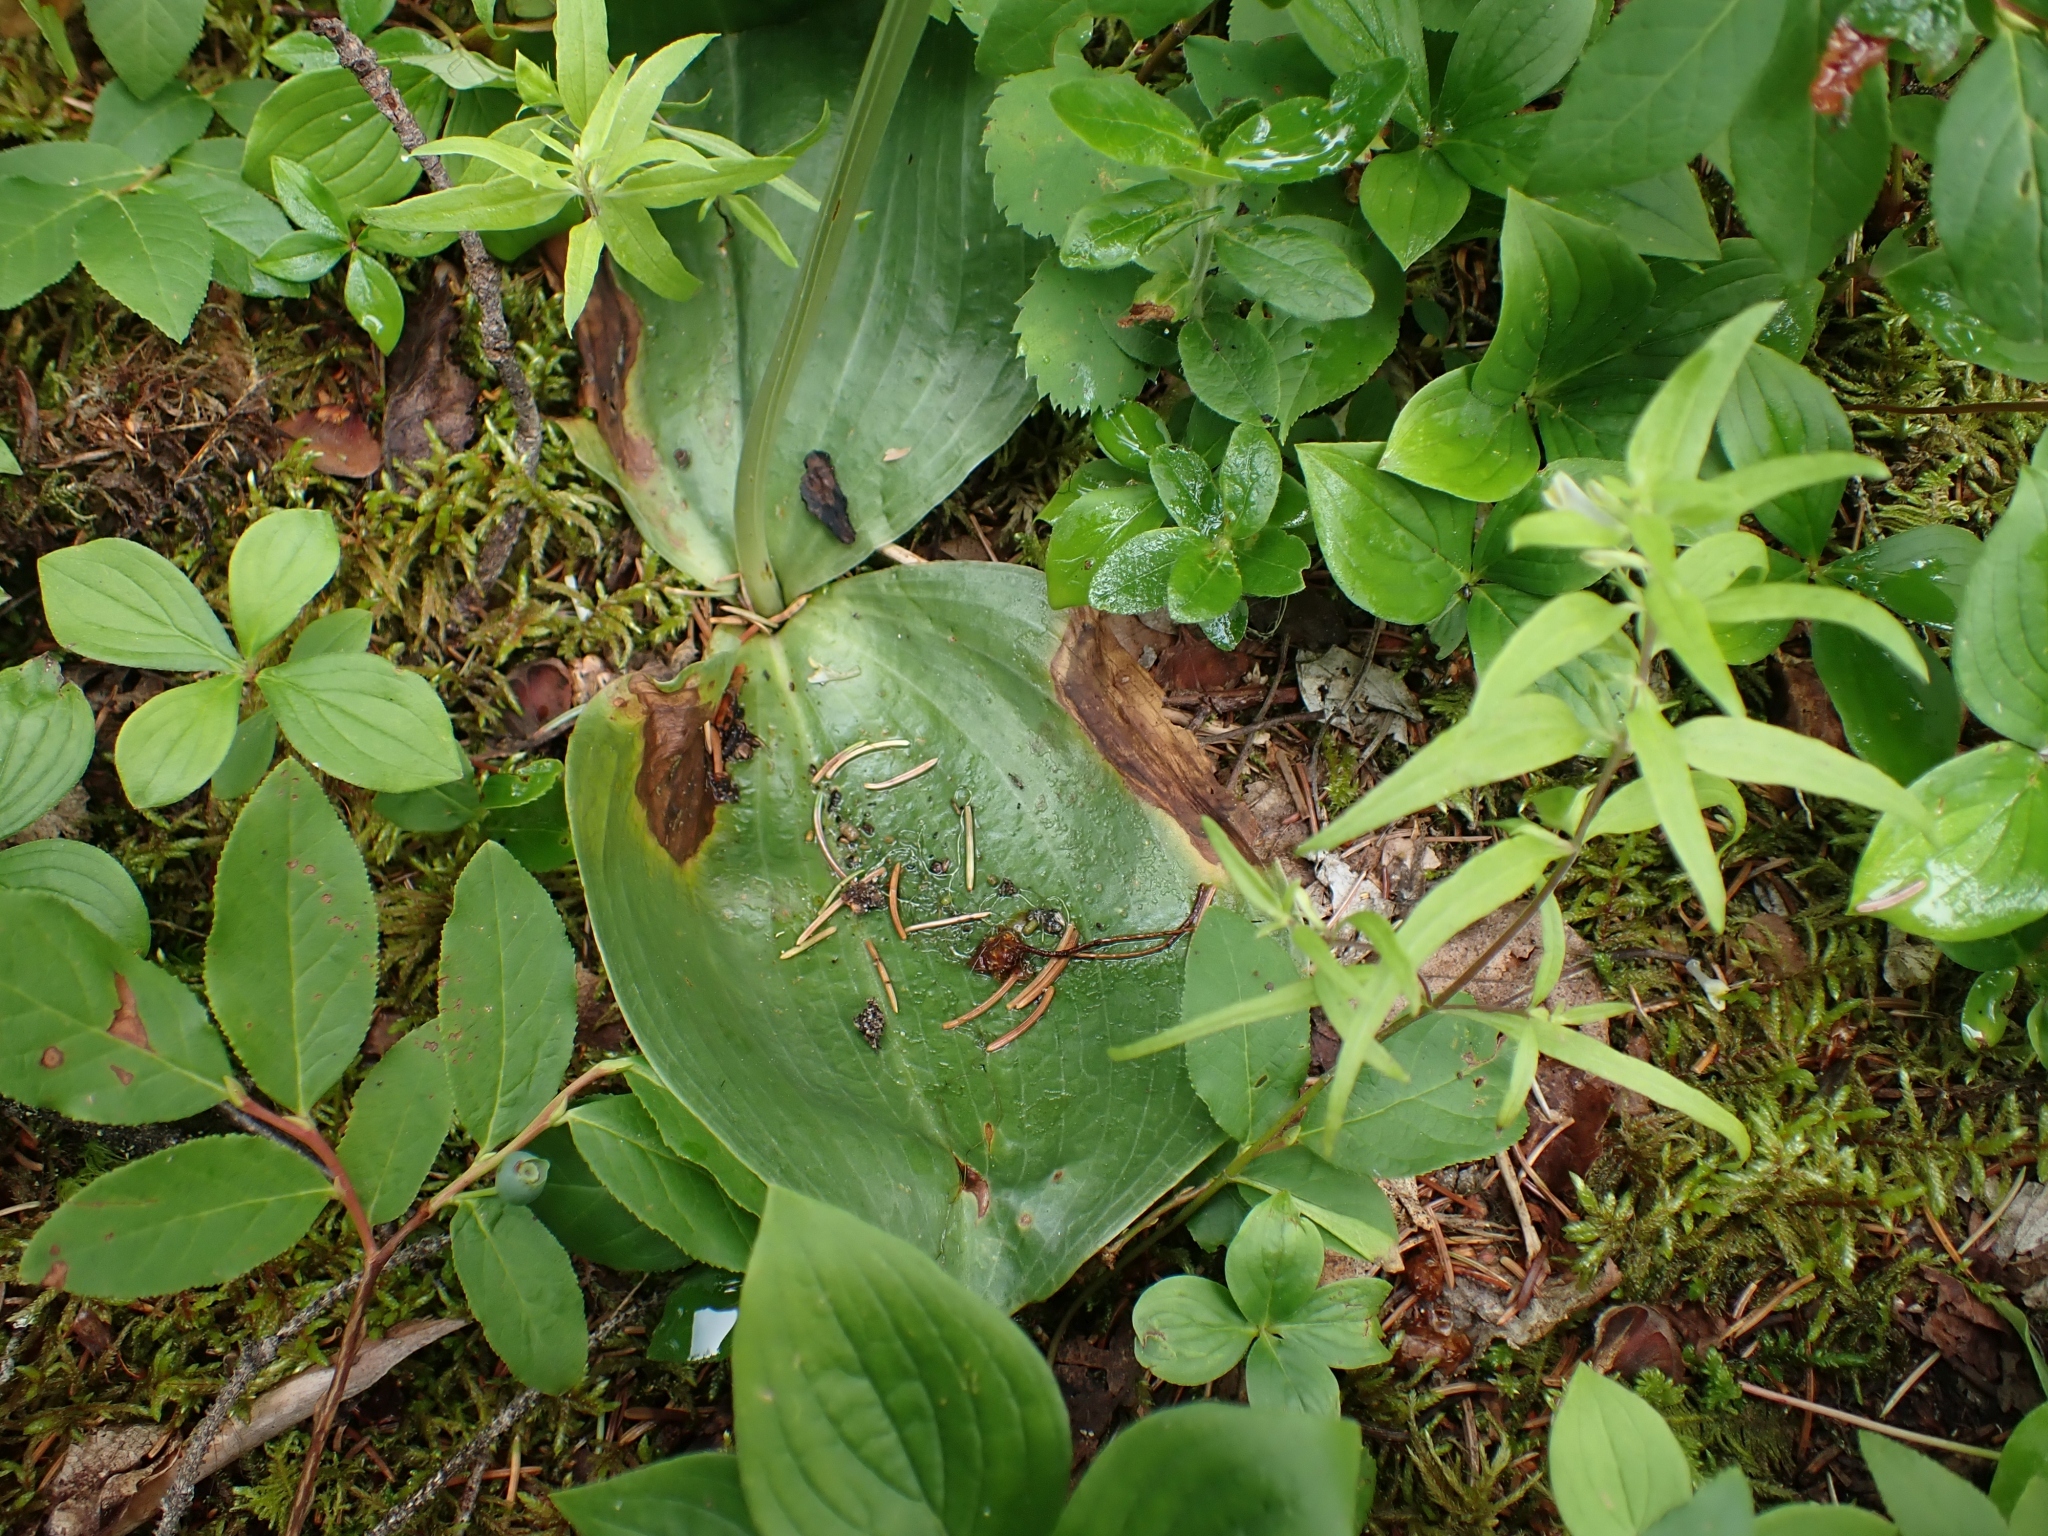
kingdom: Plantae
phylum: Tracheophyta
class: Liliopsida
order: Asparagales
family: Orchidaceae
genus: Platanthera
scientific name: Platanthera orbiculata
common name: Large round-leaved orchid
